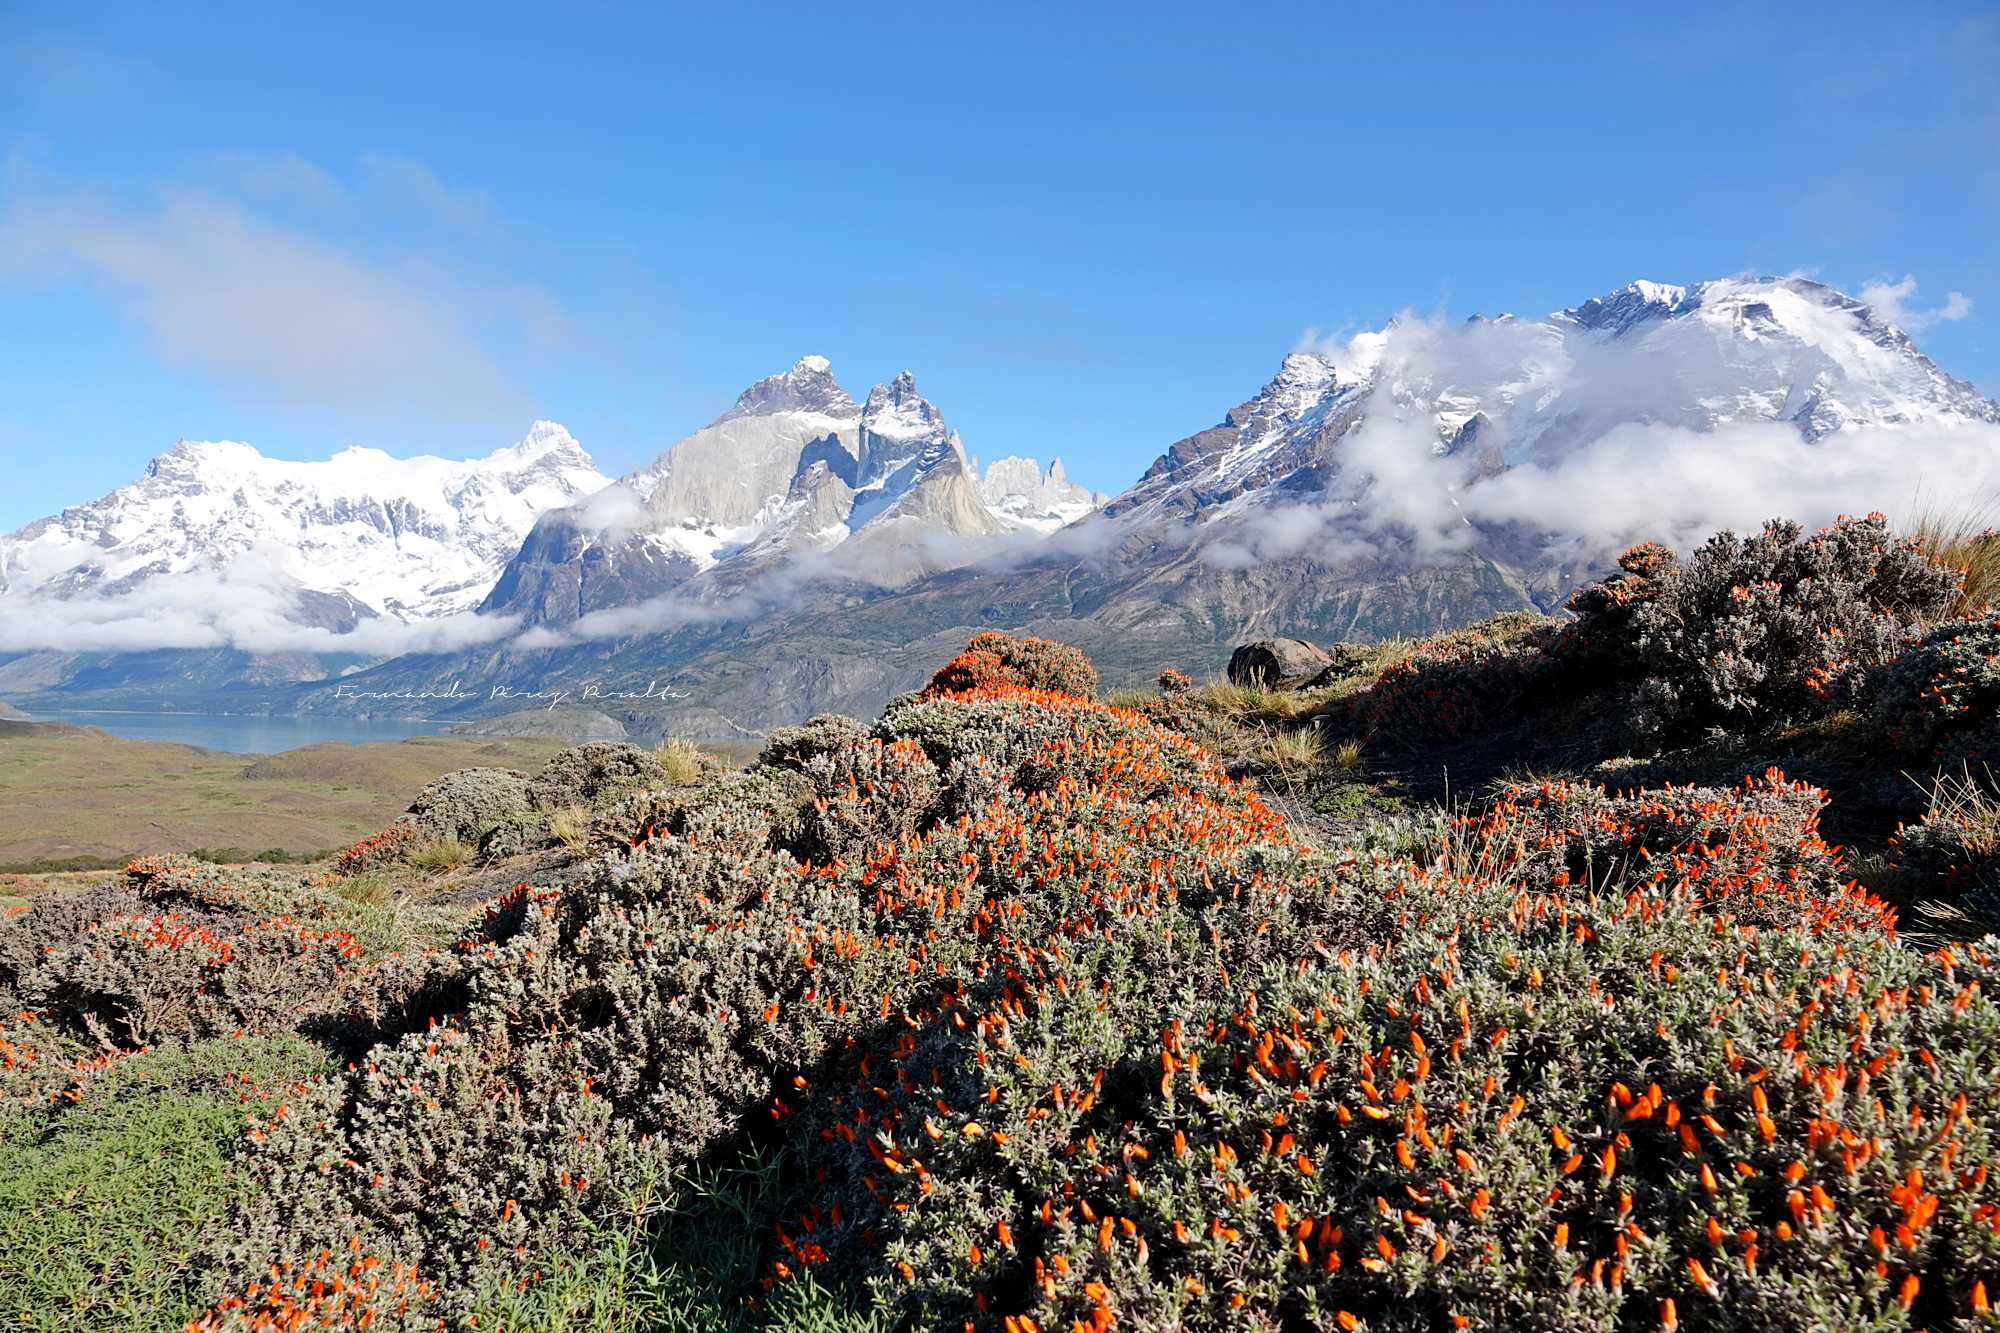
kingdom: Plantae
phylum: Tracheophyta
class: Magnoliopsida
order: Fabales
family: Fabaceae
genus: Anarthrophyllum
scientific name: Anarthrophyllum desideratum
